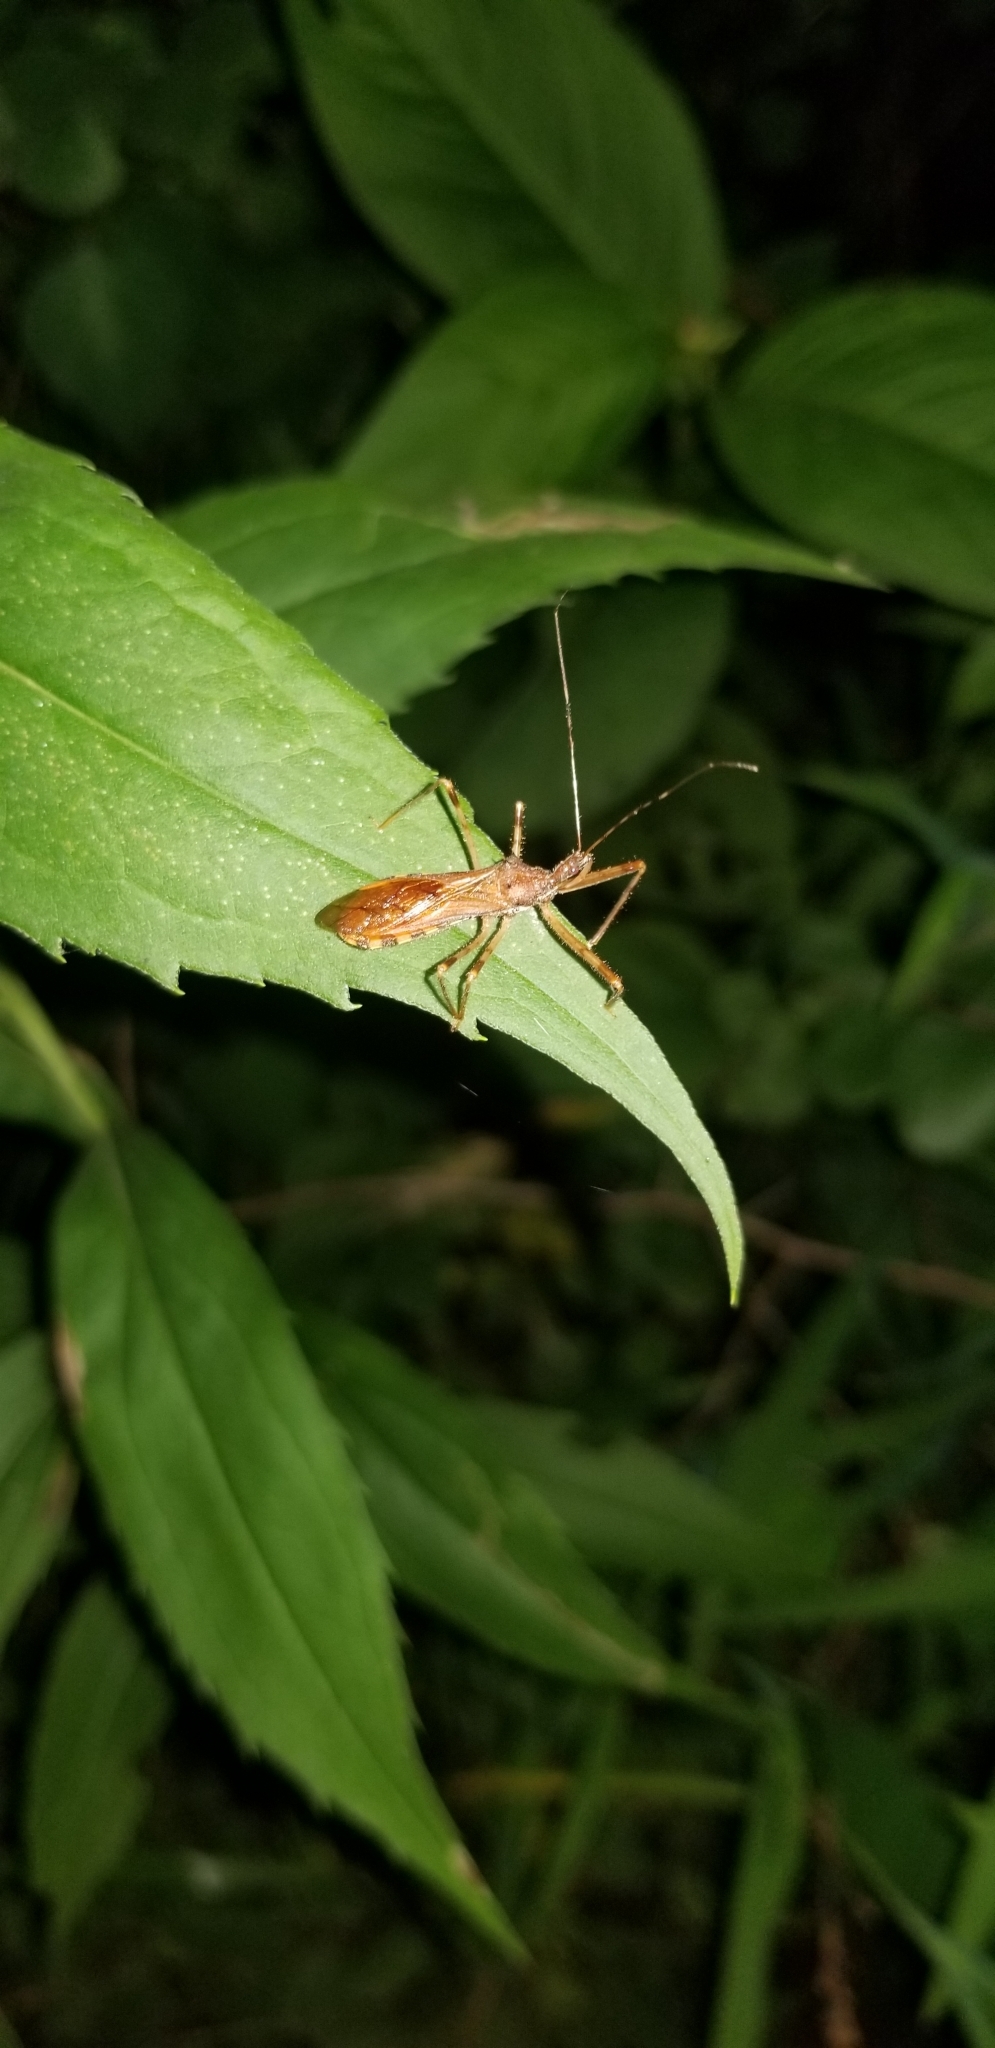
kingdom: Animalia
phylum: Arthropoda
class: Insecta
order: Hemiptera
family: Reduviidae
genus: Rocconota
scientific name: Rocconota annulicornis
